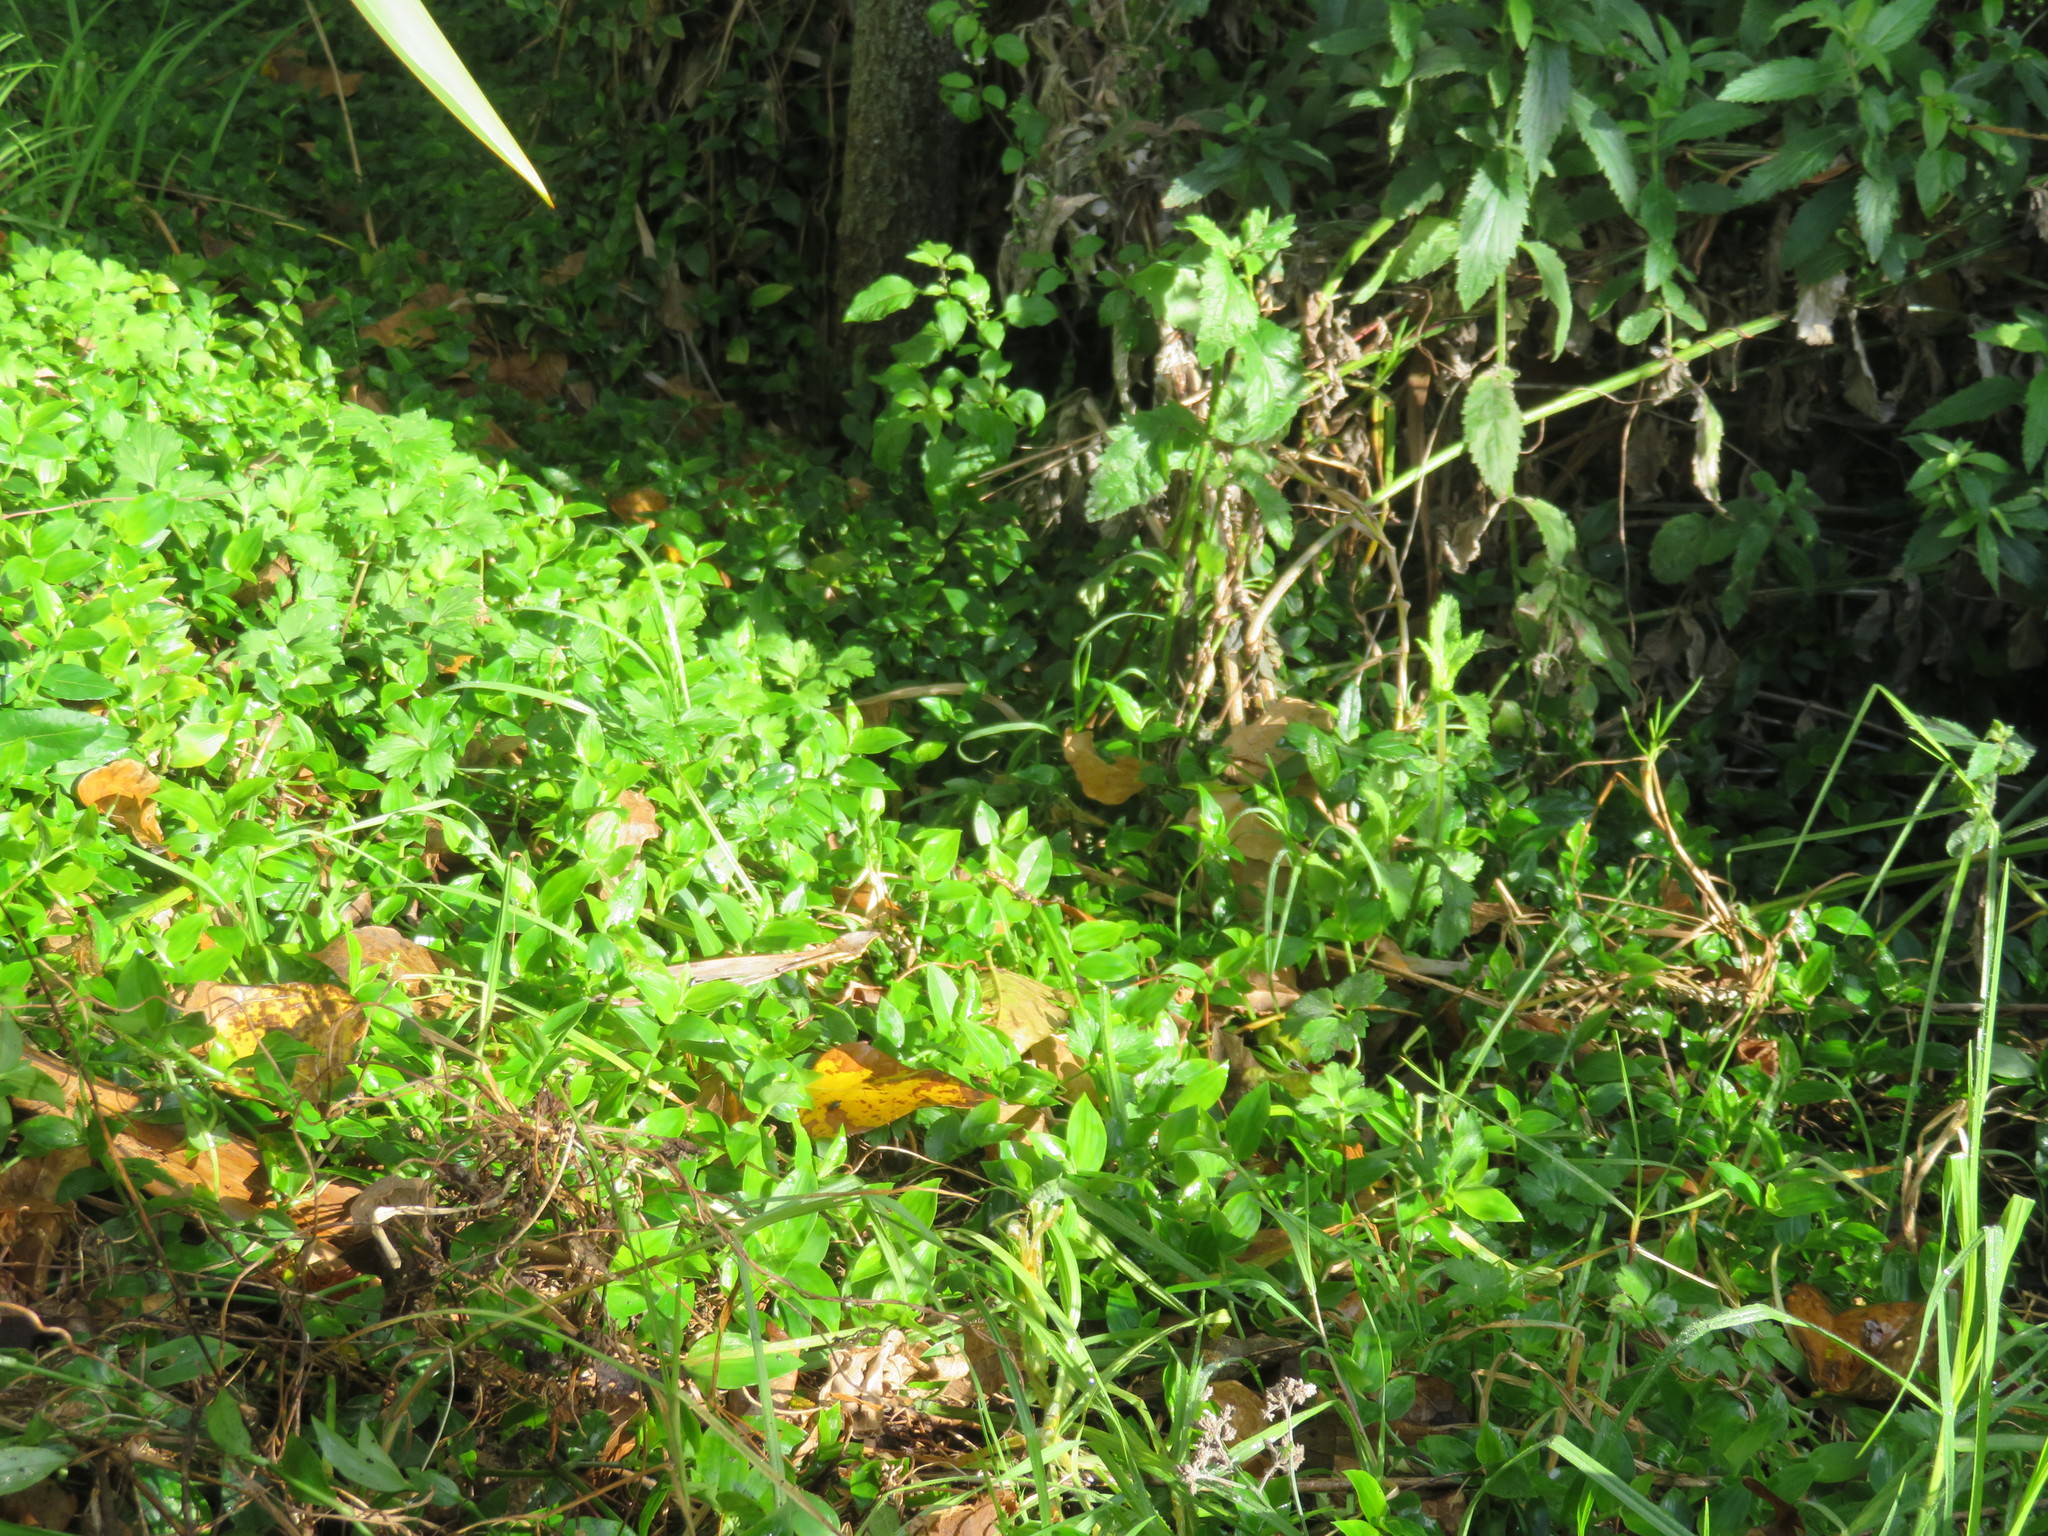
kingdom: Plantae
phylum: Tracheophyta
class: Liliopsida
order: Commelinales
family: Commelinaceae
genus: Tradescantia
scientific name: Tradescantia fluminensis
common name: Wandering-jew
